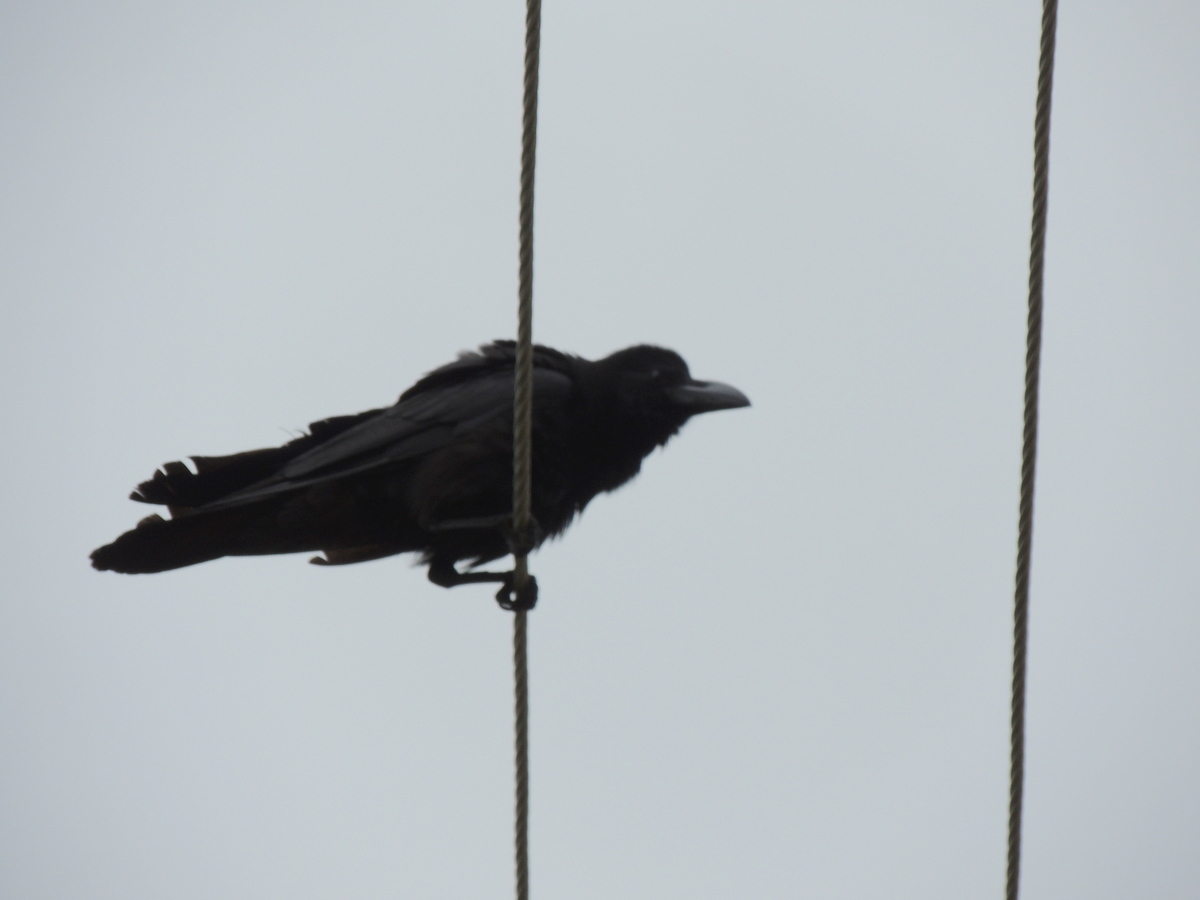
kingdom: Animalia
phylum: Chordata
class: Aves
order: Passeriformes
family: Corvidae
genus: Corvus
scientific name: Corvus macrorhynchos
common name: Large-billed crow
